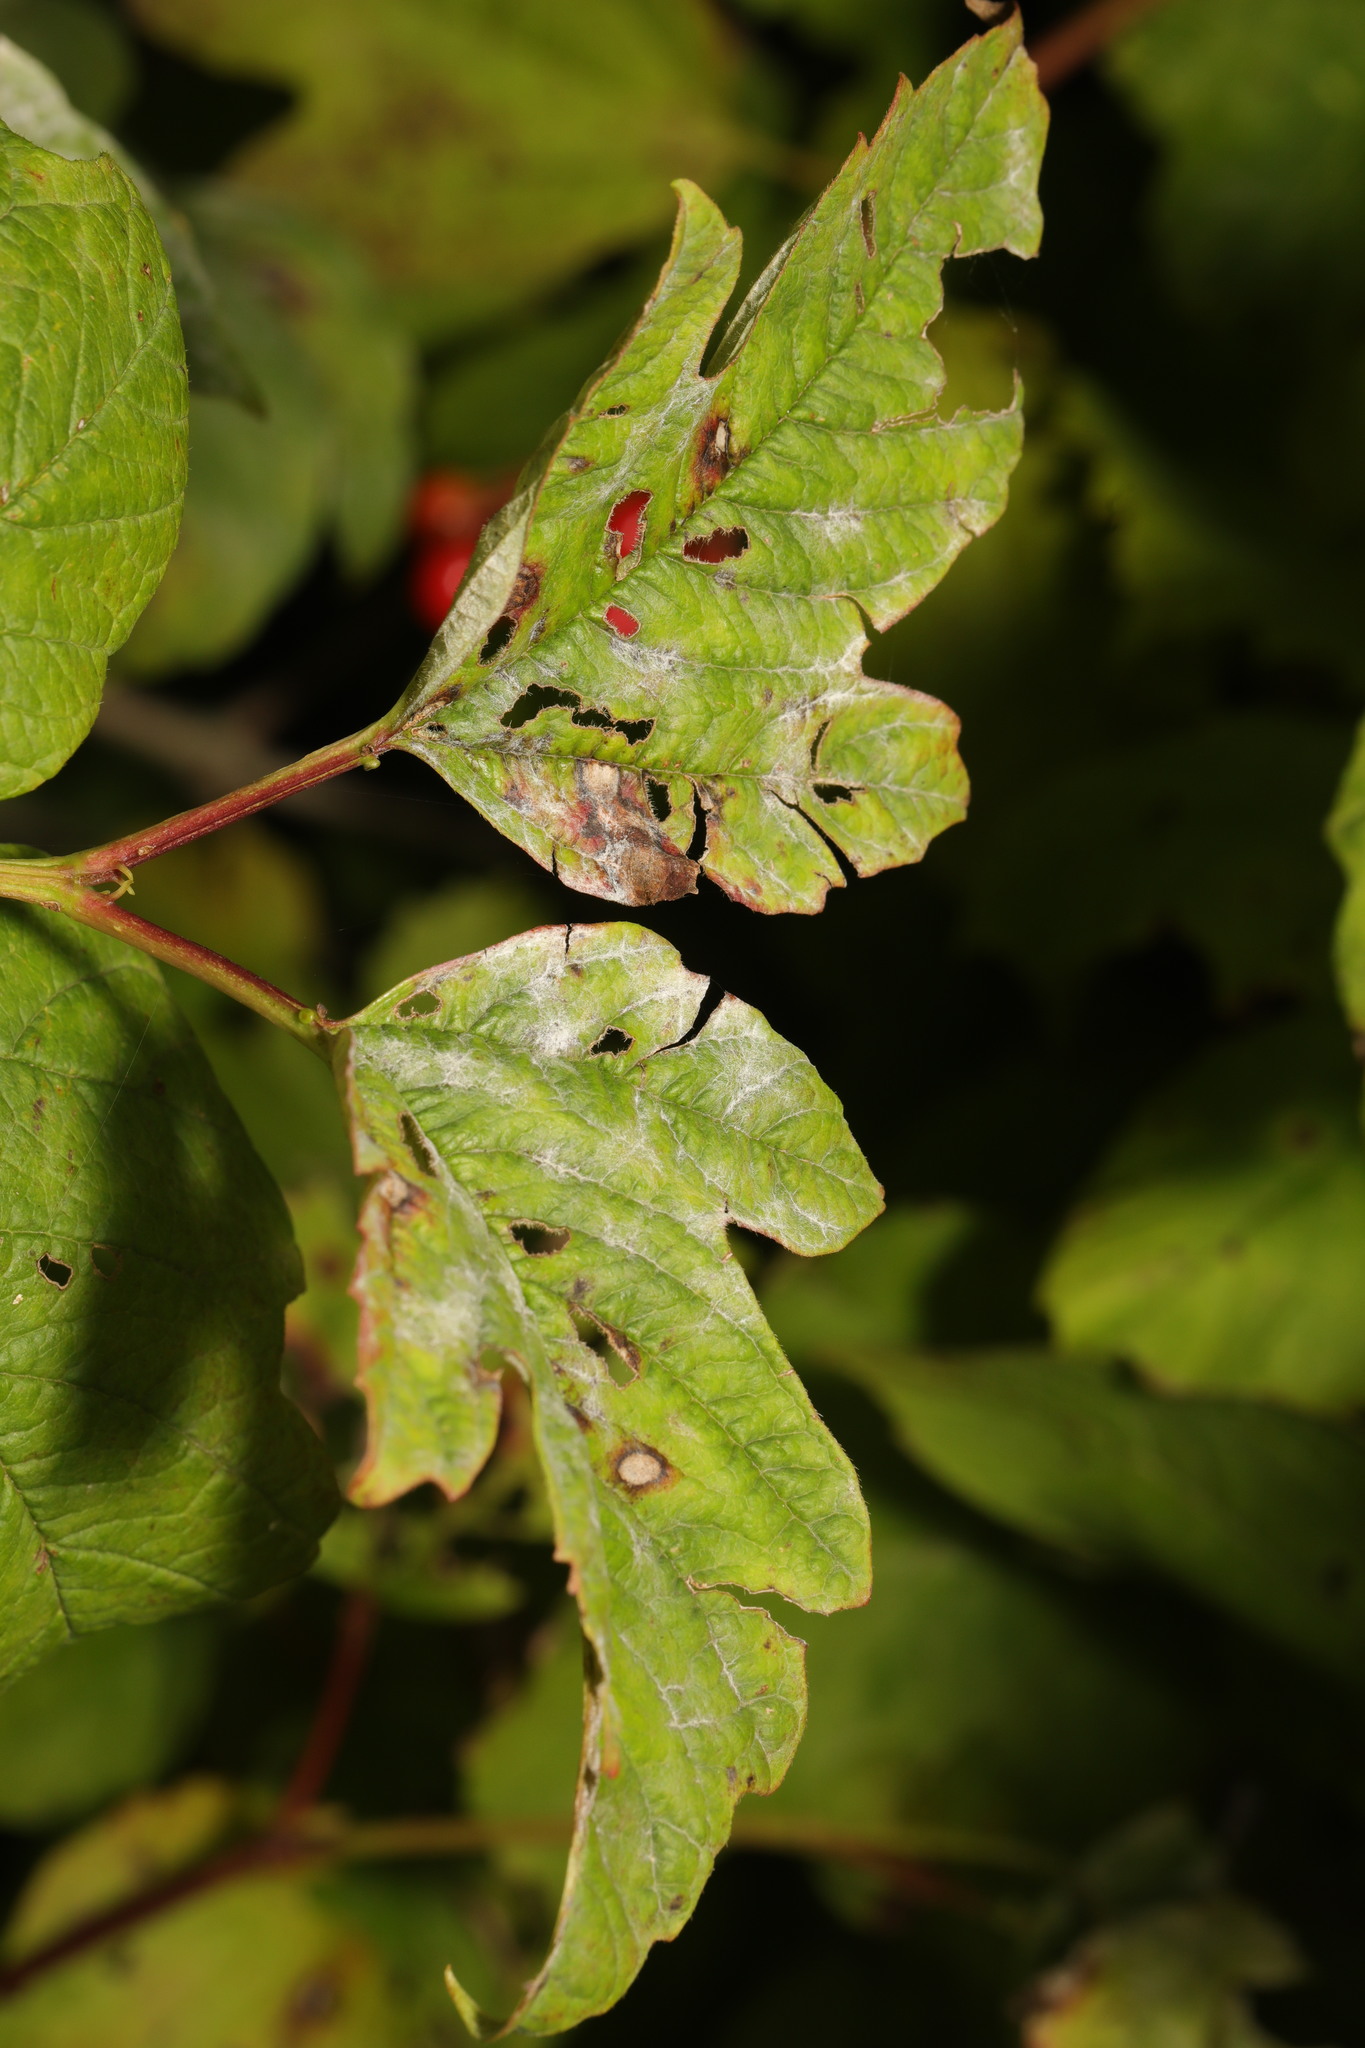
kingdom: Plantae
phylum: Tracheophyta
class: Magnoliopsida
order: Dipsacales
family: Viburnaceae
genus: Viburnum
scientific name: Viburnum opulus
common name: Guelder-rose
